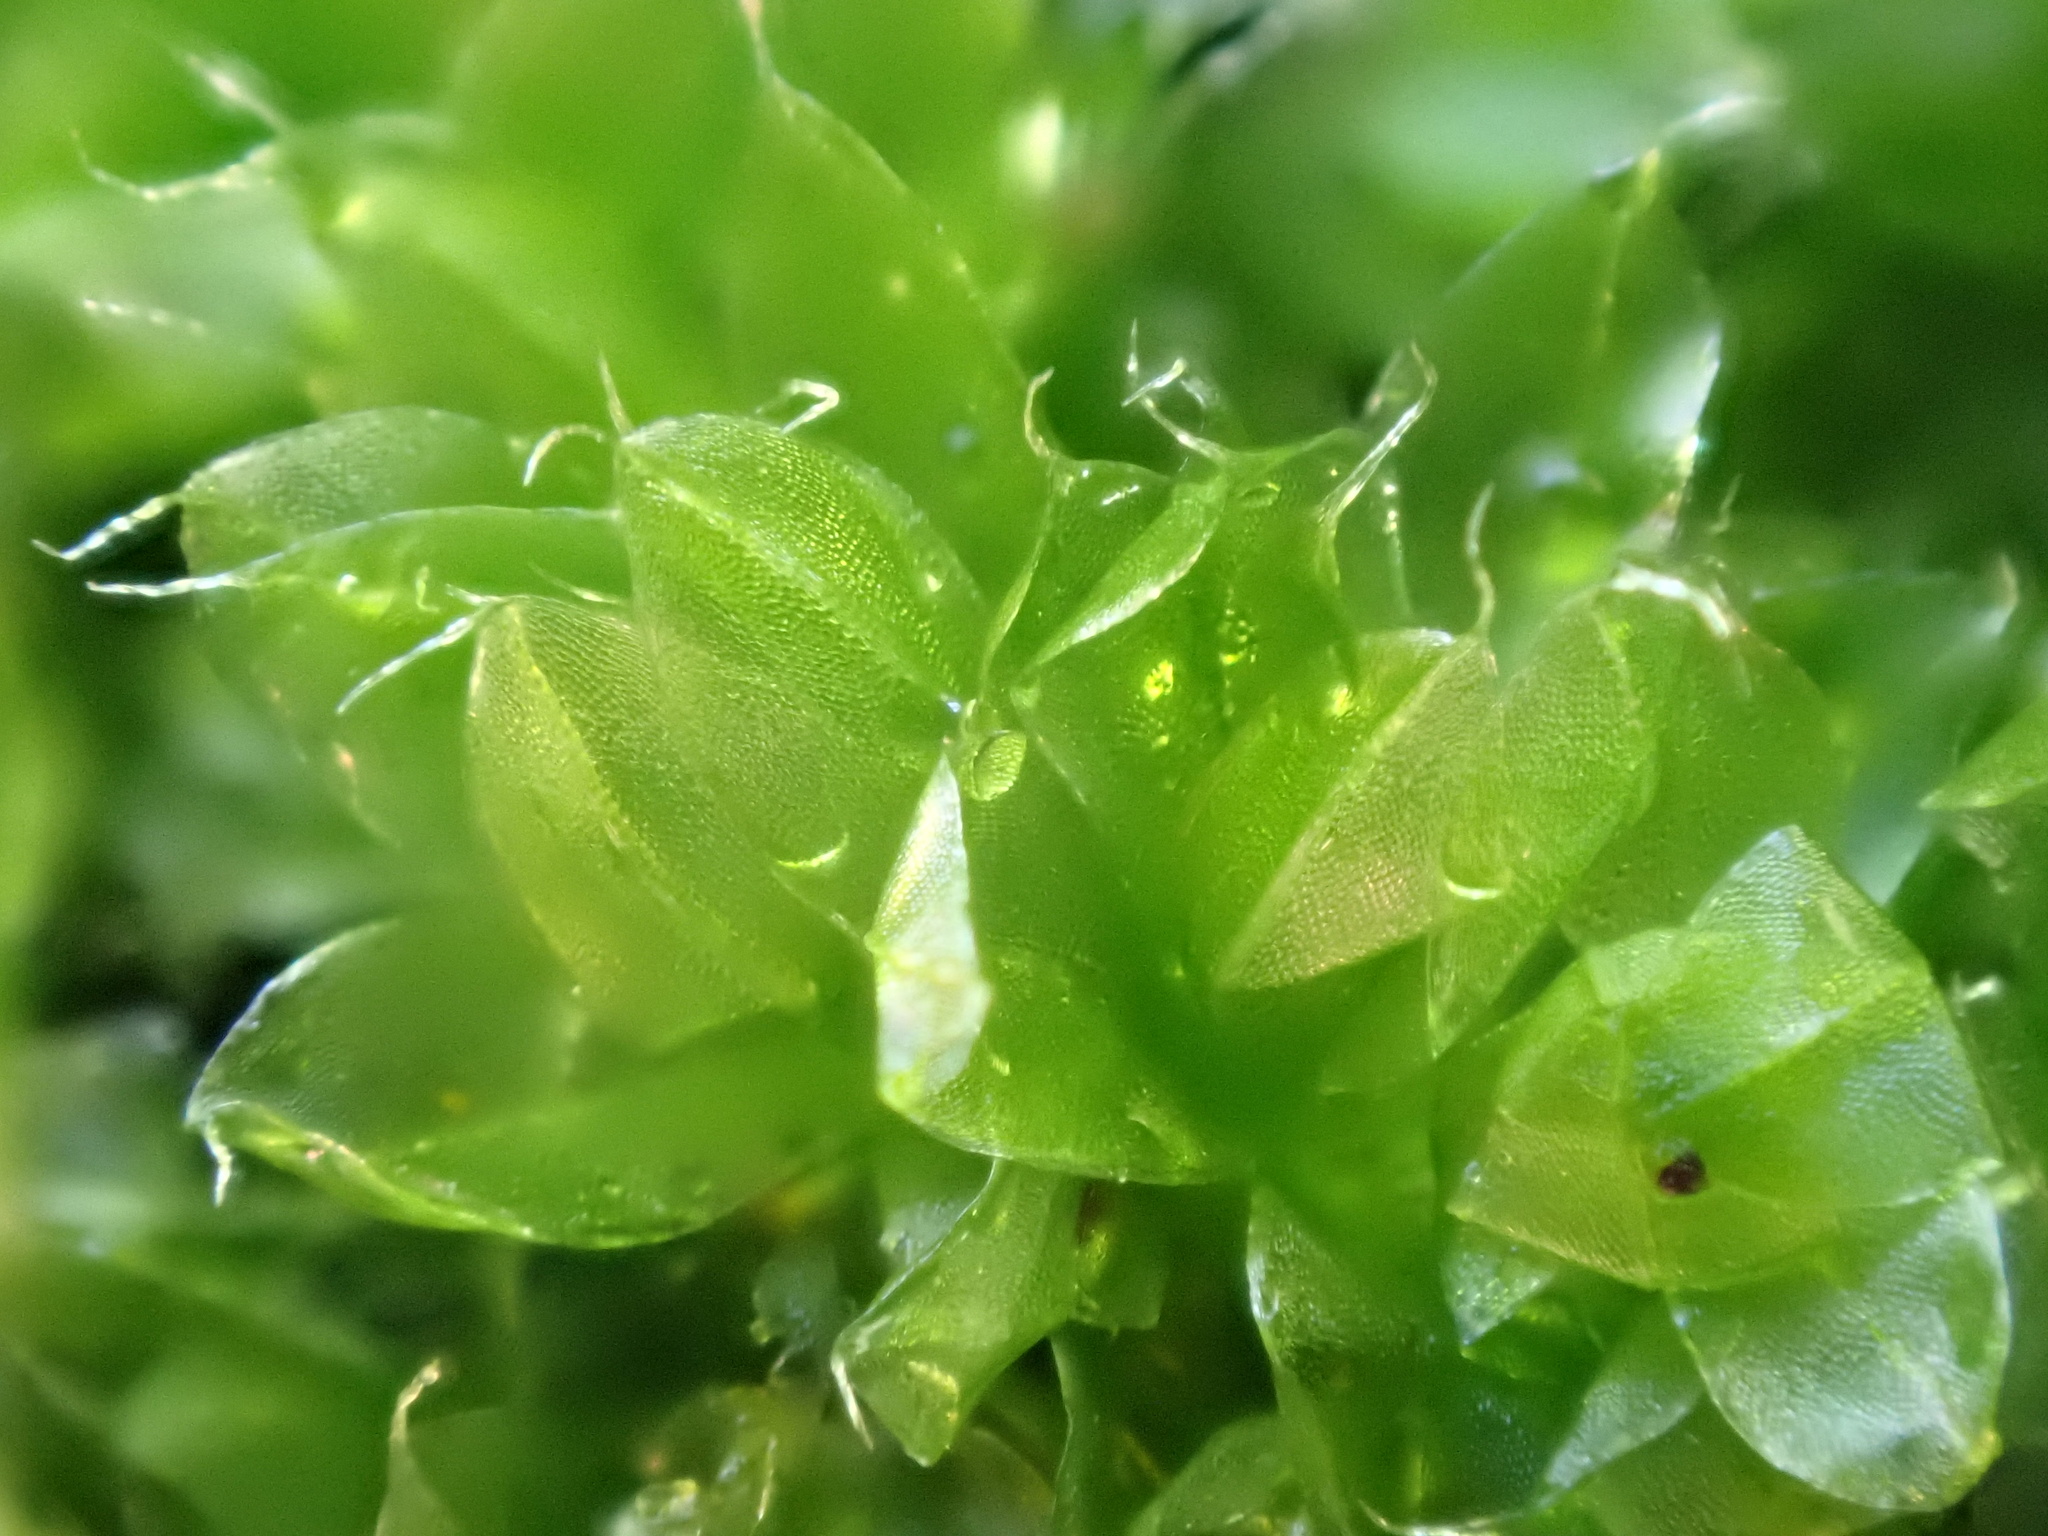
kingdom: Plantae
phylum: Bryophyta
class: Bryopsida
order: Bryales
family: Bryaceae
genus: Rosulabryum
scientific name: Rosulabryum capillare
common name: Capillary thread-moss
